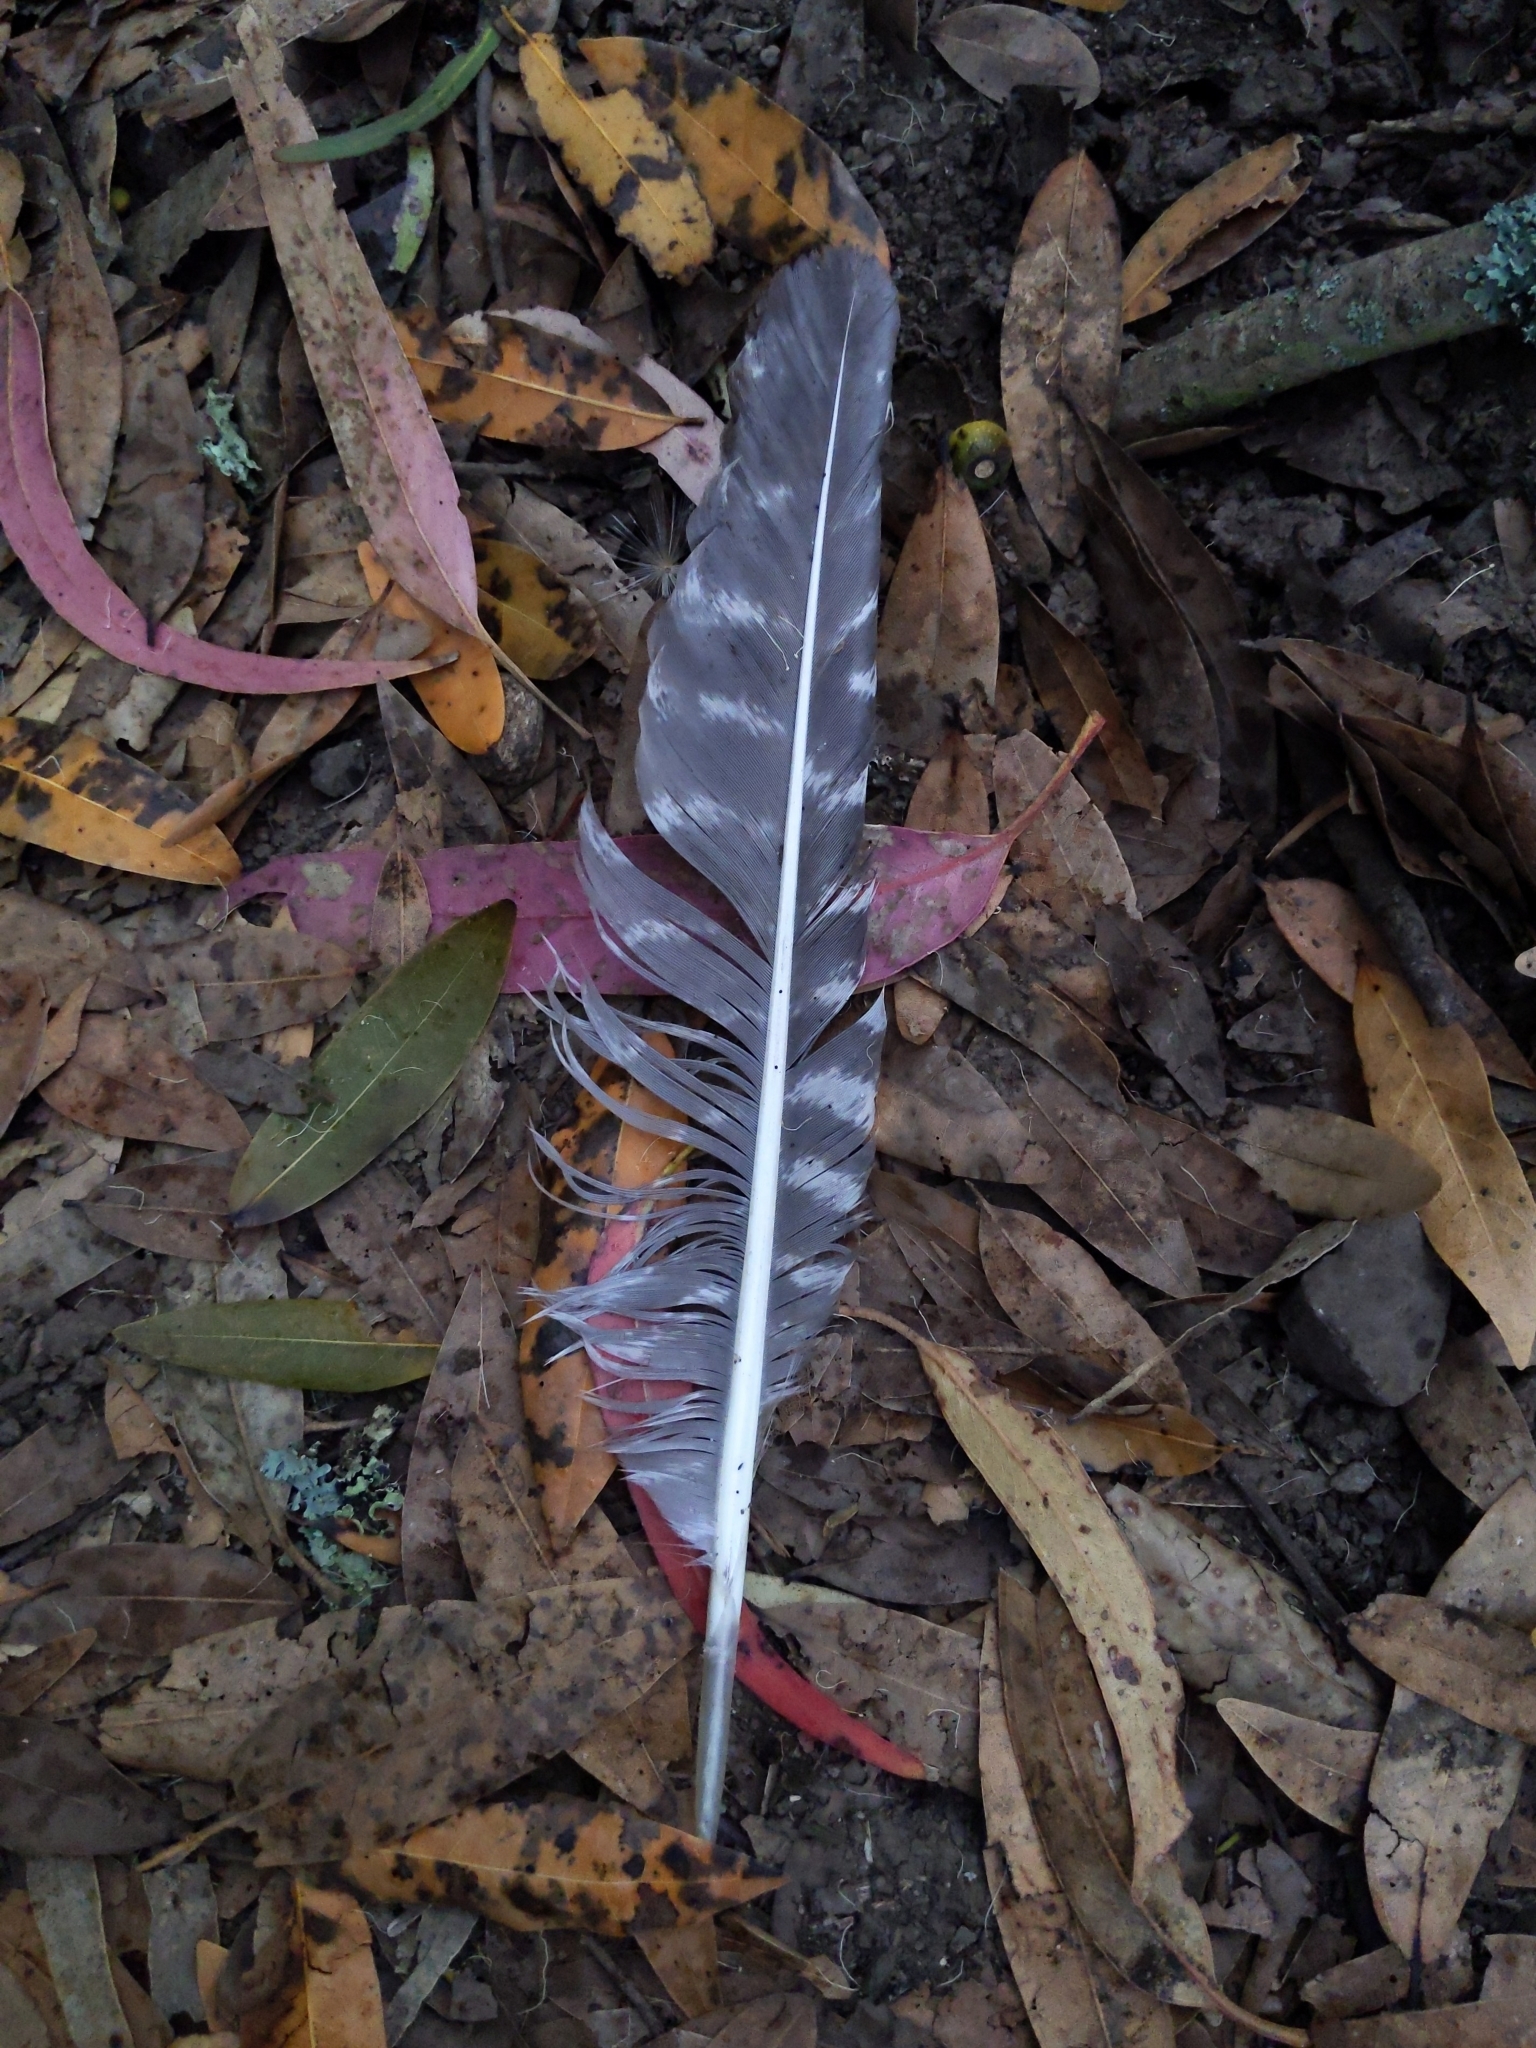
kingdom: Animalia
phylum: Chordata
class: Aves
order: Galliformes
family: Phasianidae
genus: Meleagris
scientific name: Meleagris gallopavo
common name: Wild turkey
